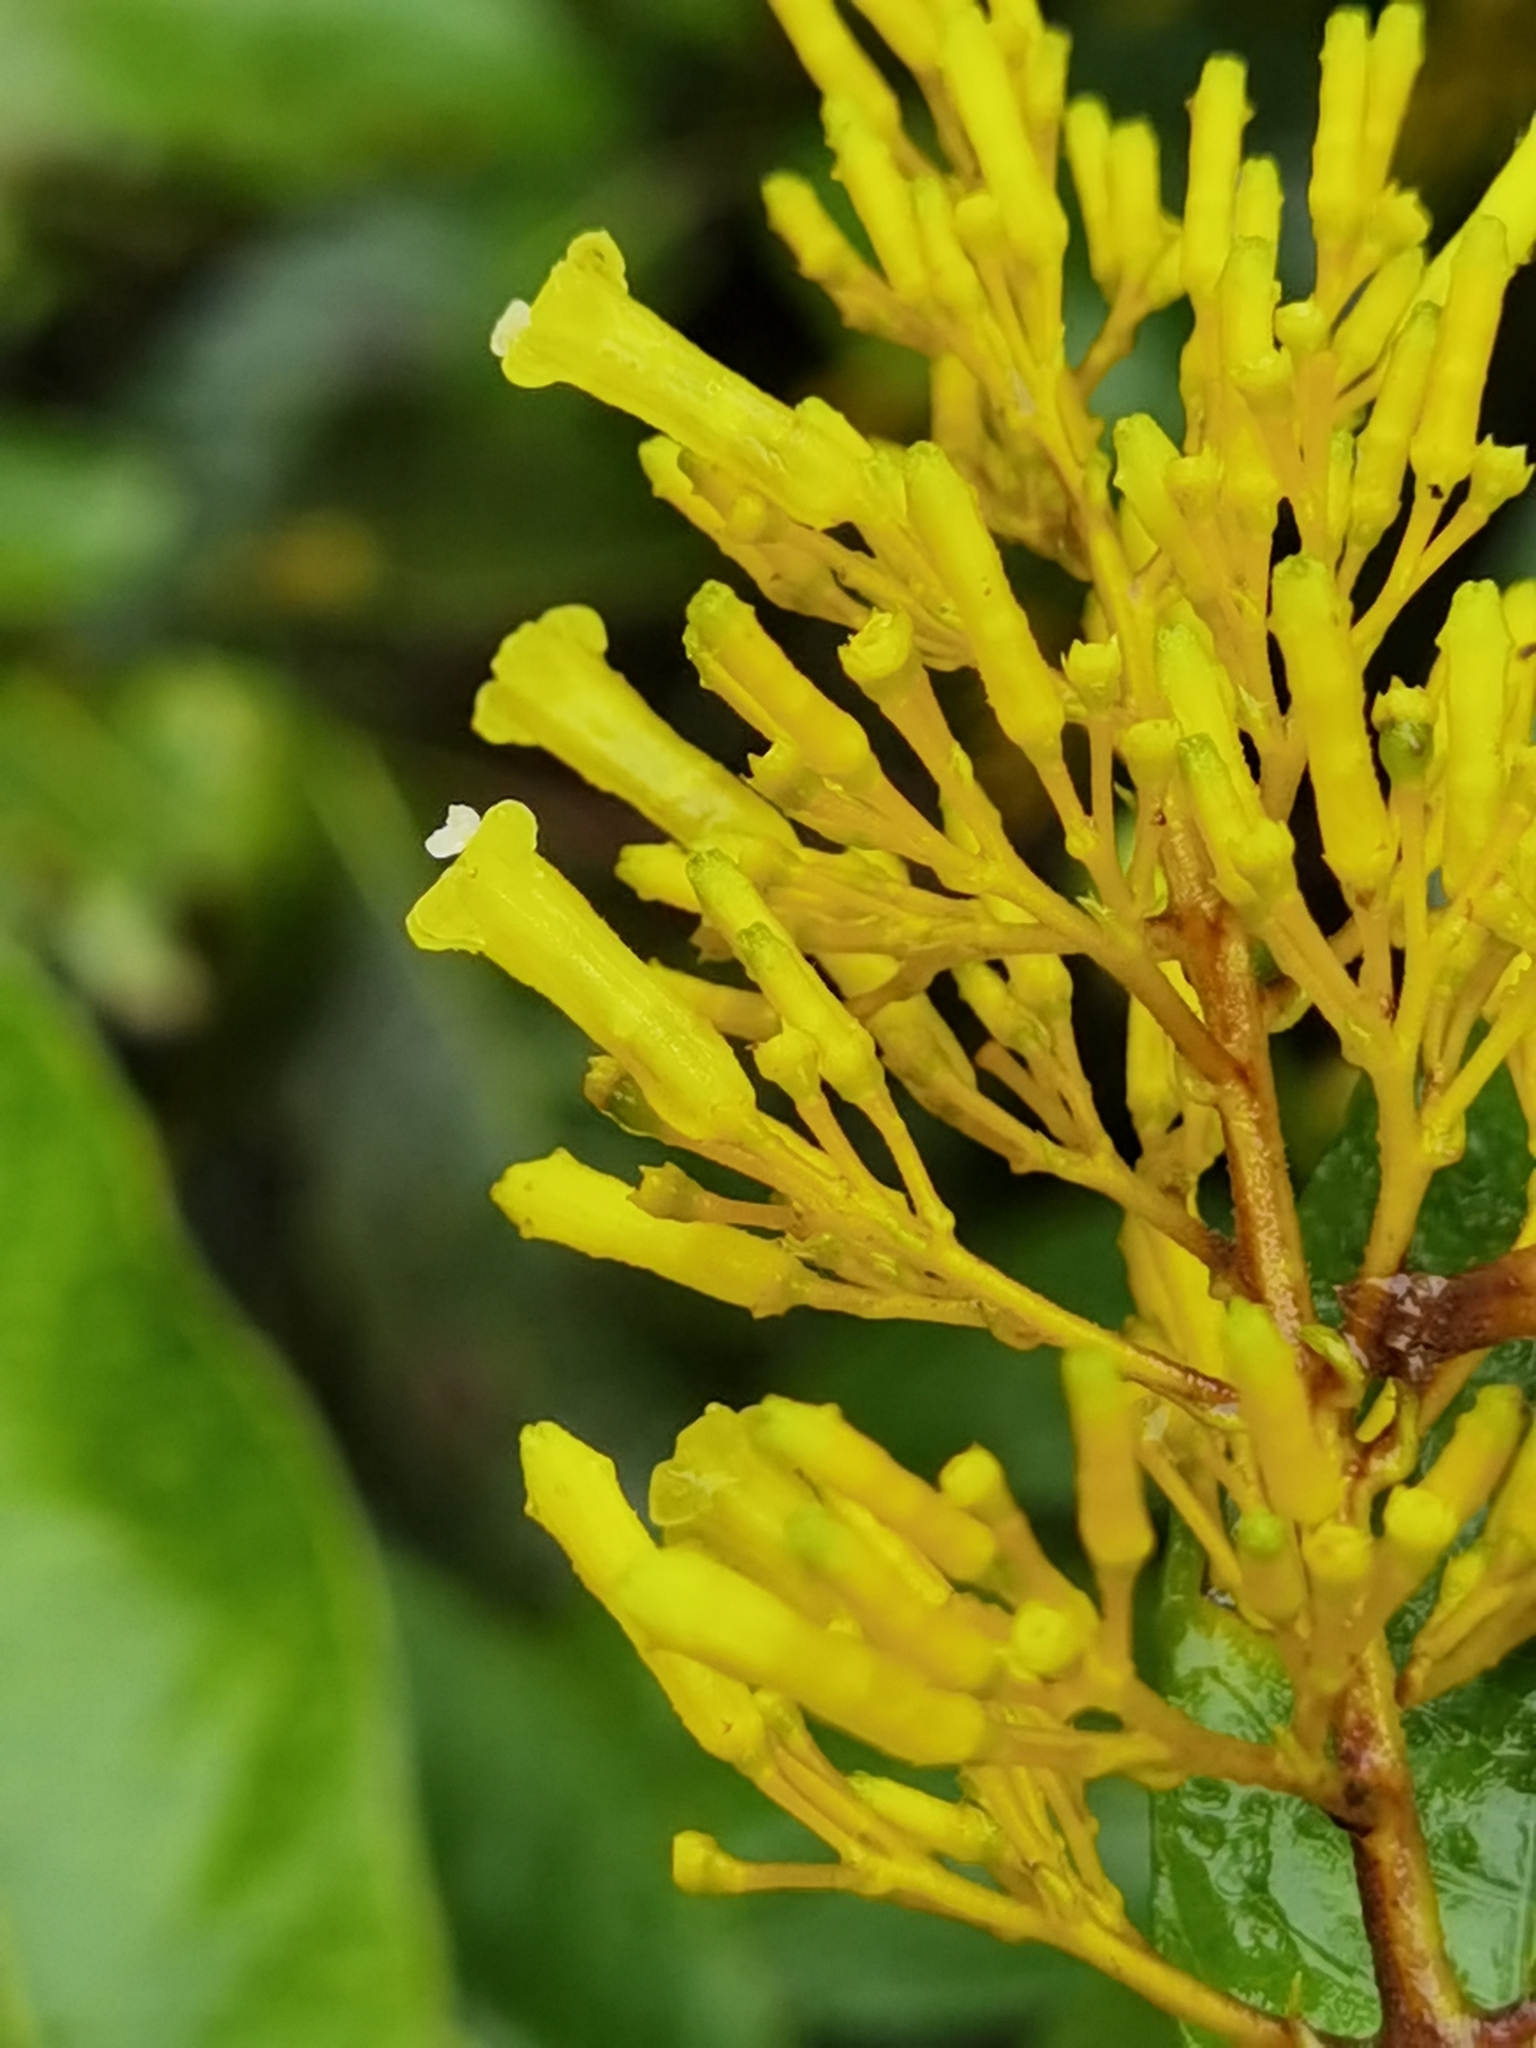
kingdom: Plantae
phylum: Tracheophyta
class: Magnoliopsida
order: Gentianales
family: Rubiaceae
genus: Palicourea
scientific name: Palicourea lasiorrhachis
